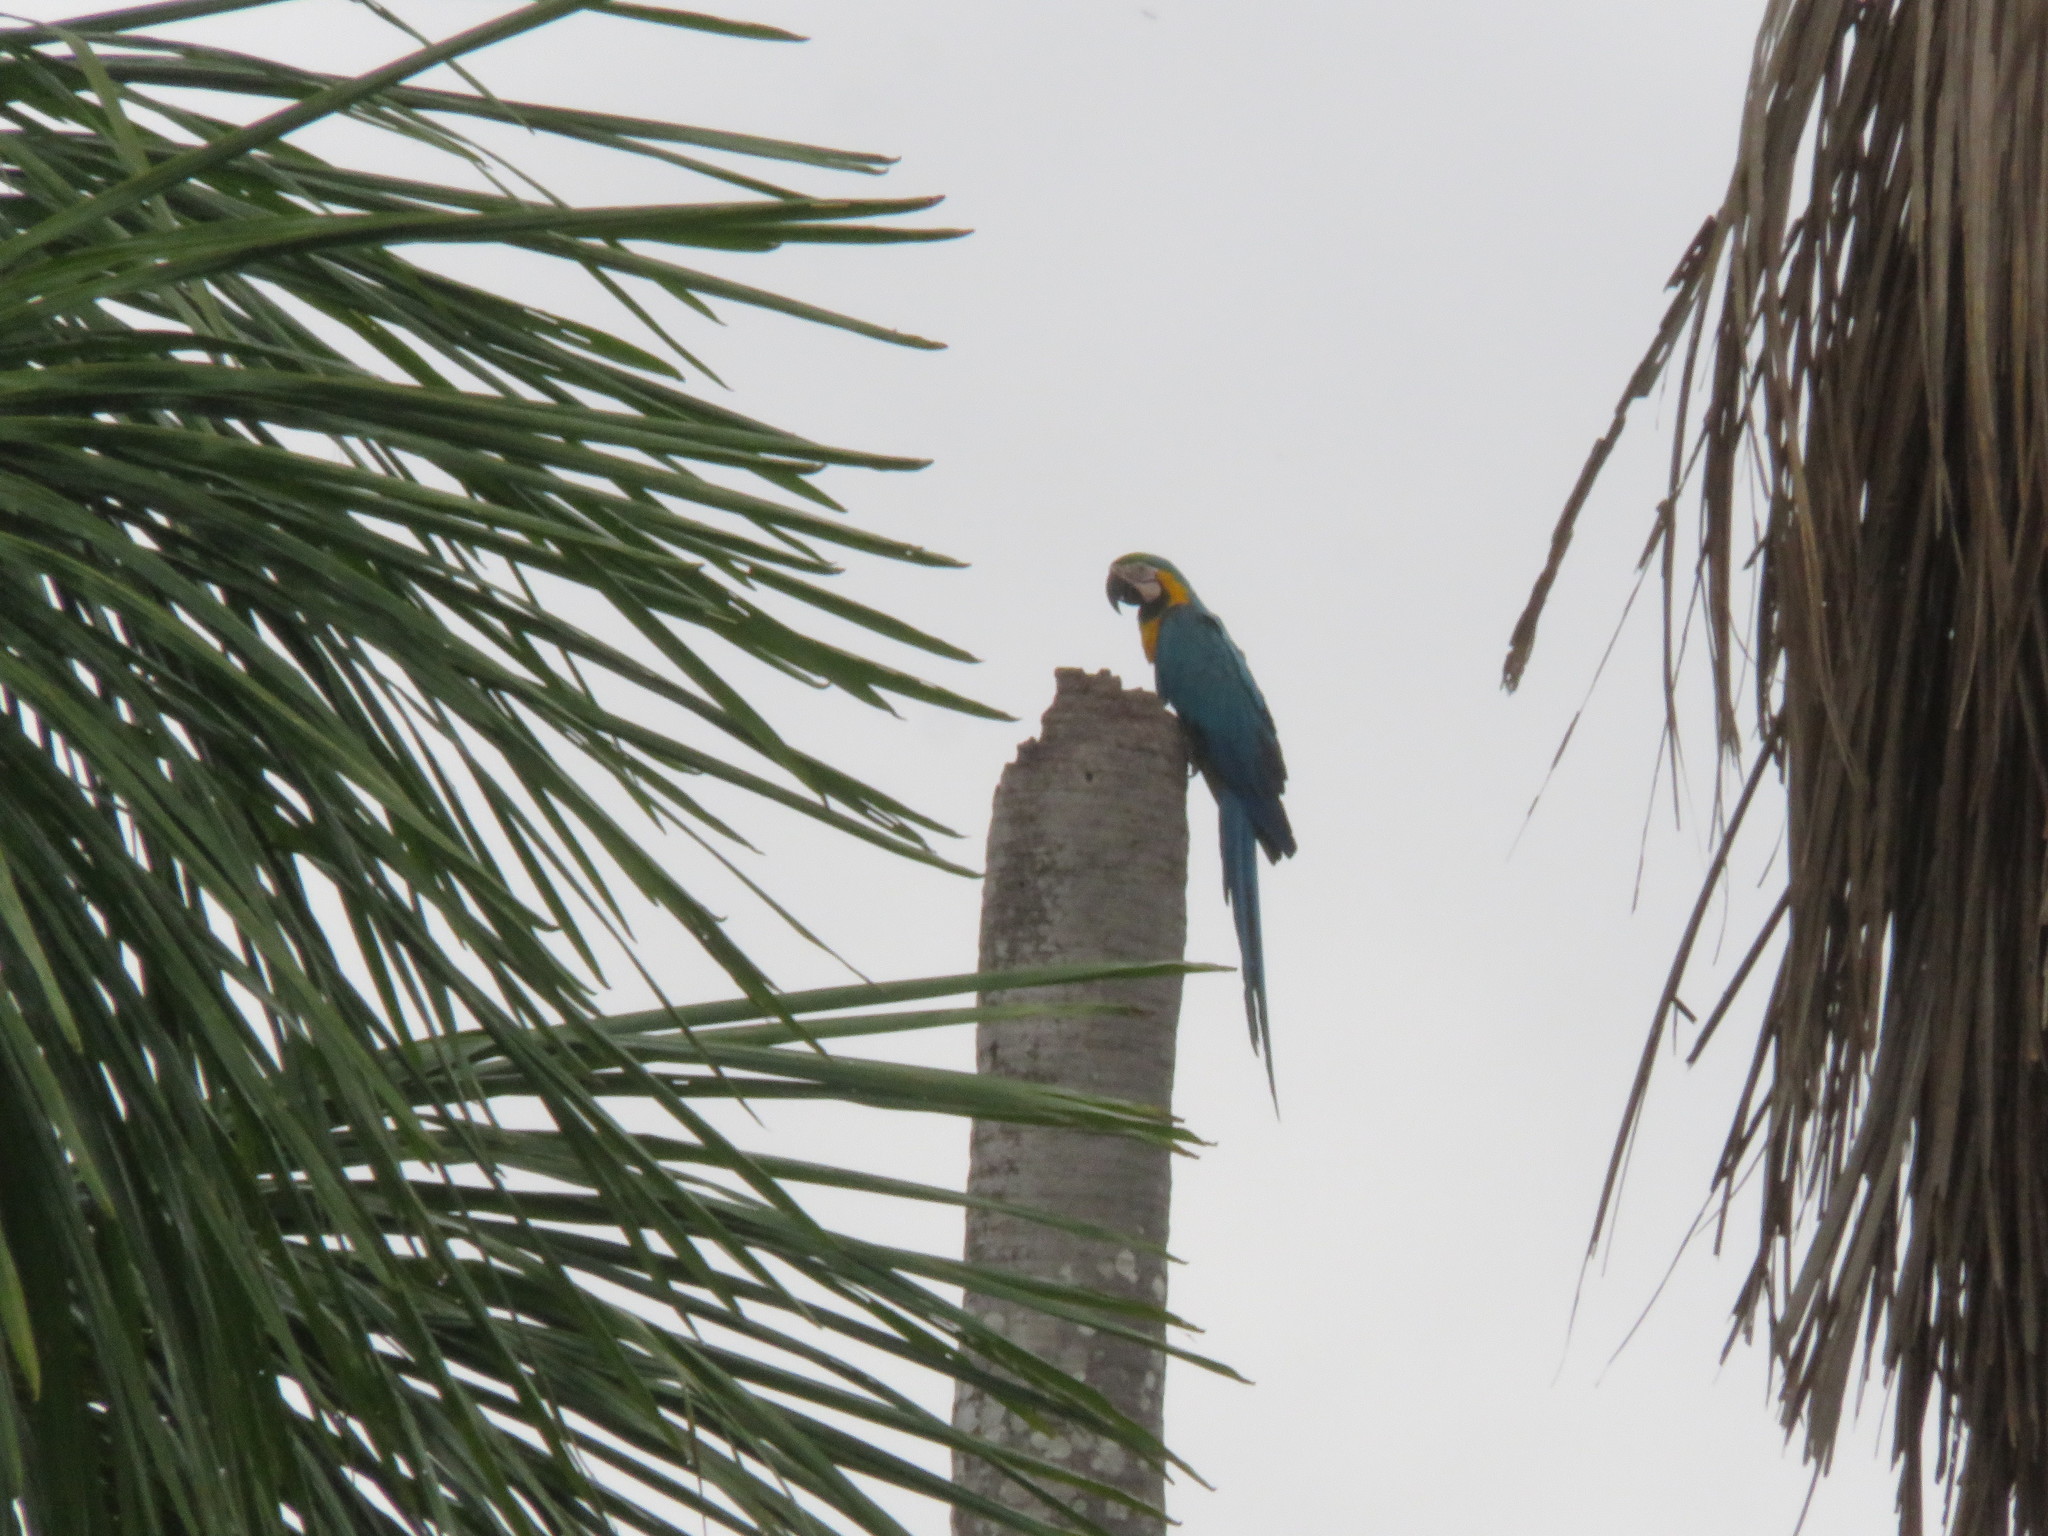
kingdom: Animalia
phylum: Chordata
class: Aves
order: Psittaciformes
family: Psittacidae
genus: Ara
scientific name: Ara ararauna
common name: Blue-and-yellow macaw
